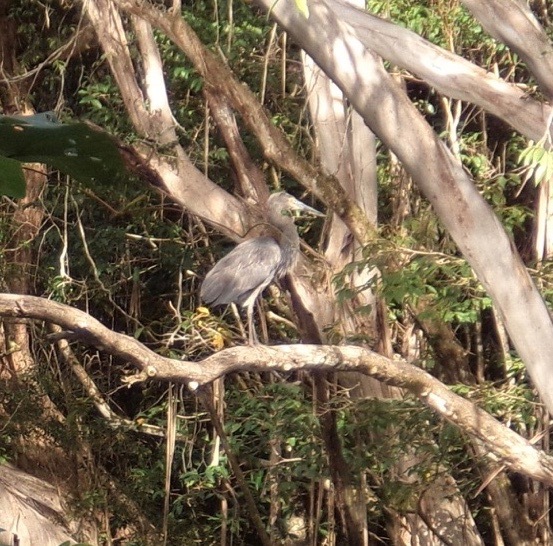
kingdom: Animalia
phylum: Chordata
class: Aves
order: Pelecaniformes
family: Ardeidae
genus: Ardea
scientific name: Ardea sumatrana
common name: Great-billed heron
